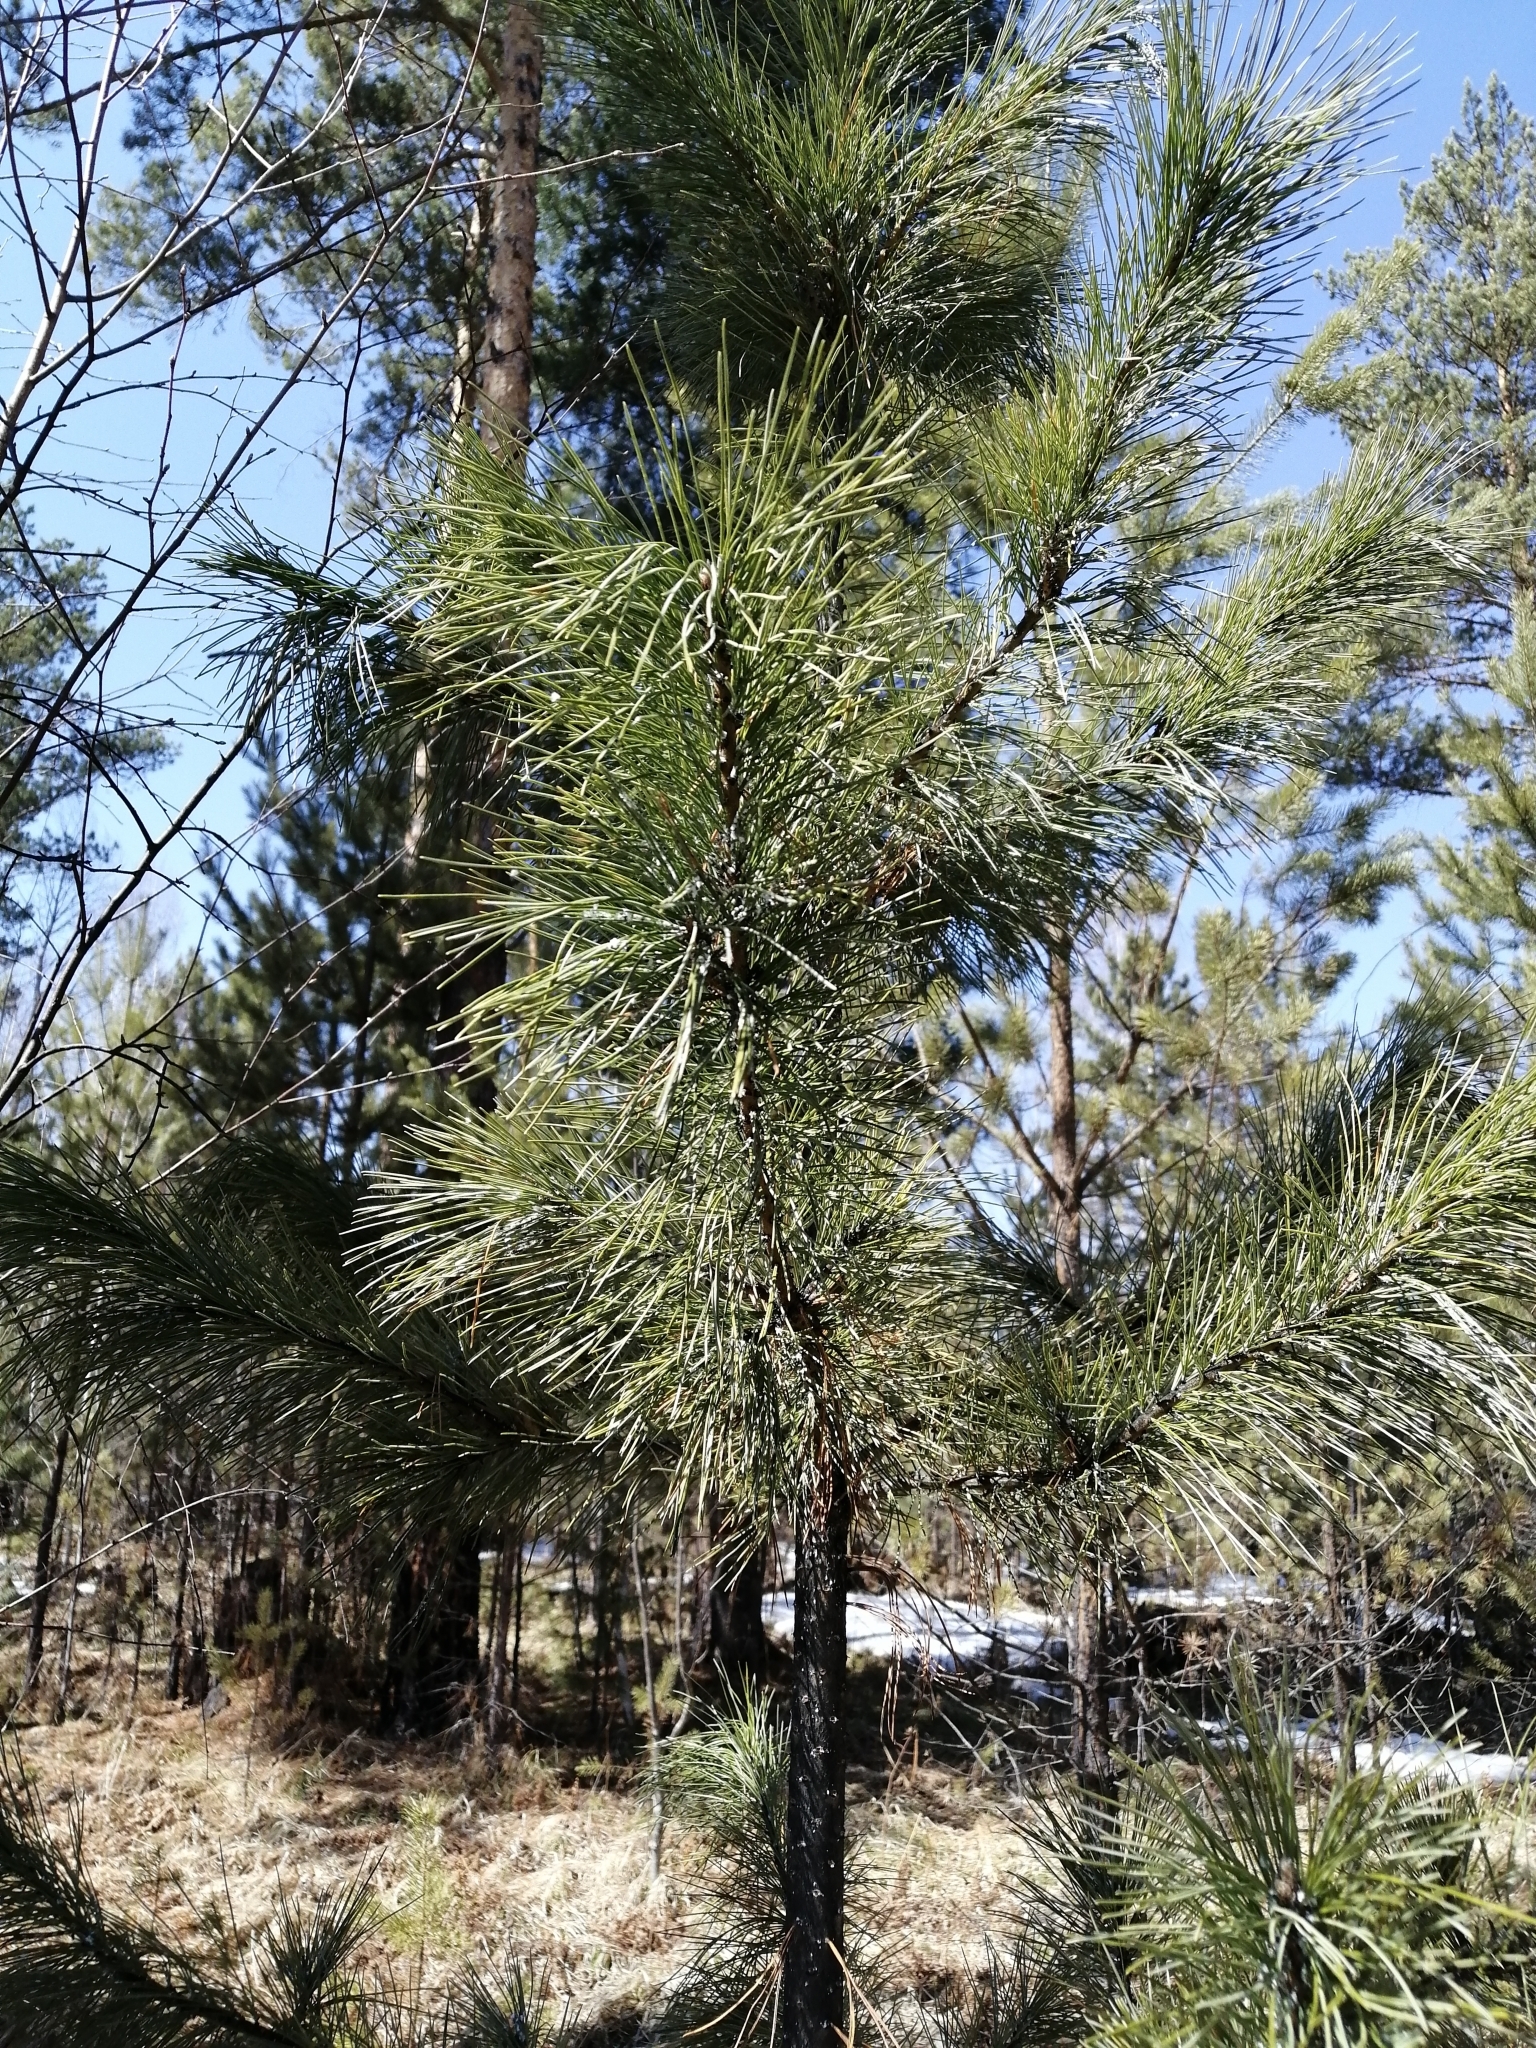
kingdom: Plantae
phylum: Tracheophyta
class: Pinopsida
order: Pinales
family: Pinaceae
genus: Pinus
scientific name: Pinus sibirica
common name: Siberian pine
